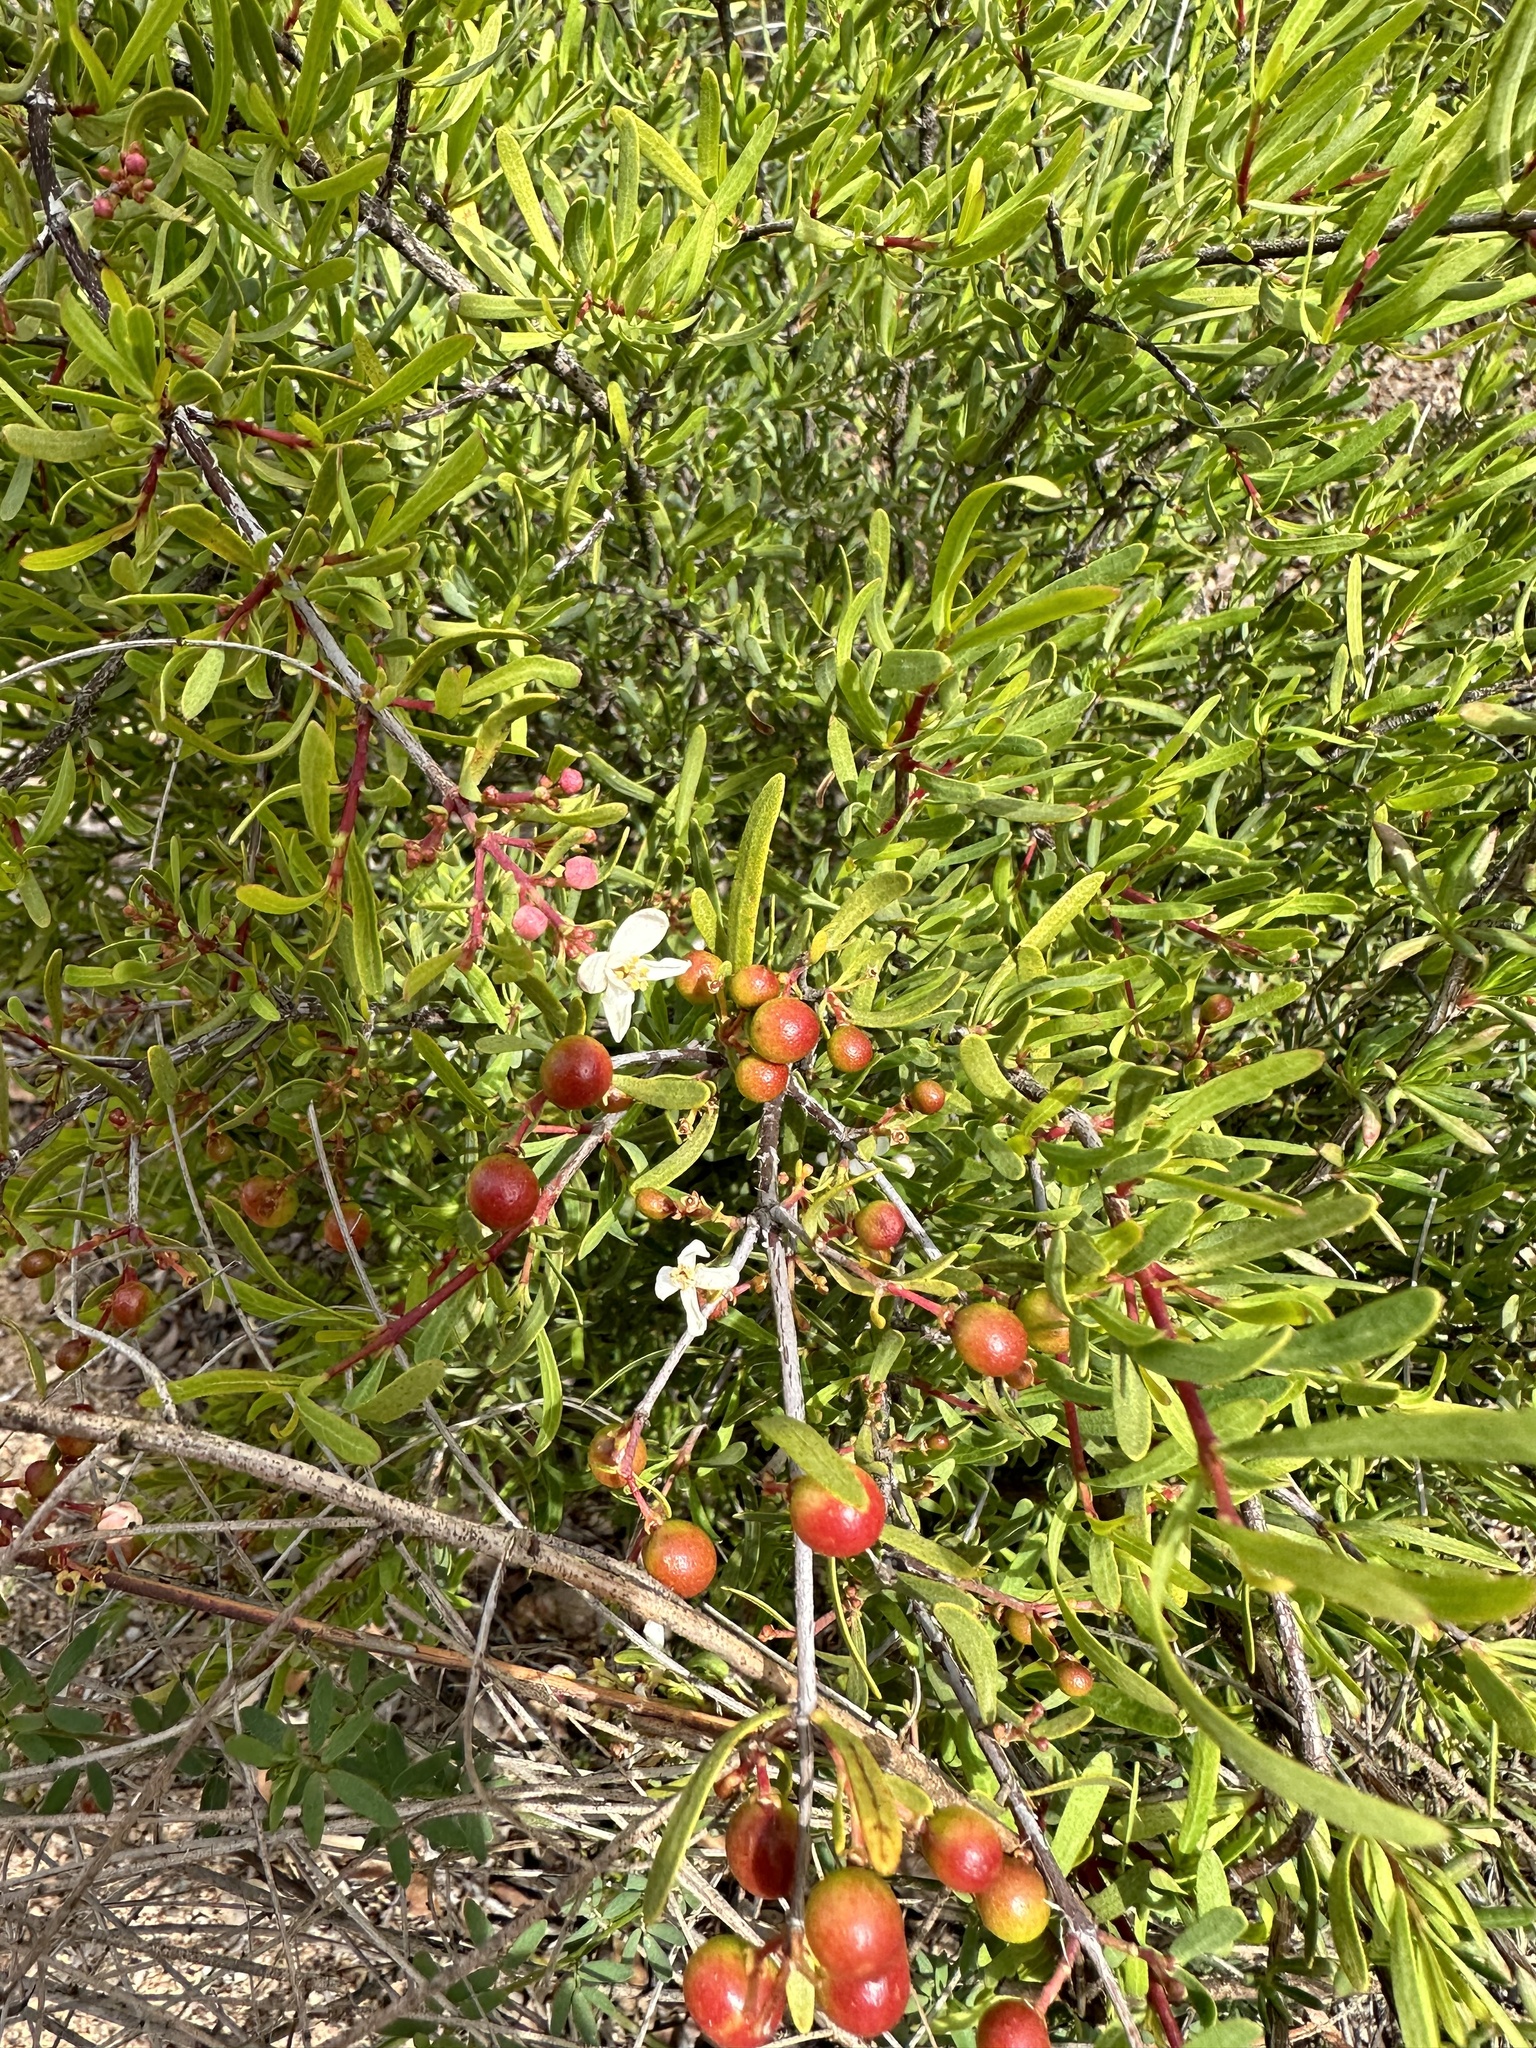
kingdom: Plantae
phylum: Tracheophyta
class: Magnoliopsida
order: Sapindales
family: Rutaceae
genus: Cneoridium
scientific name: Cneoridium dumosum
